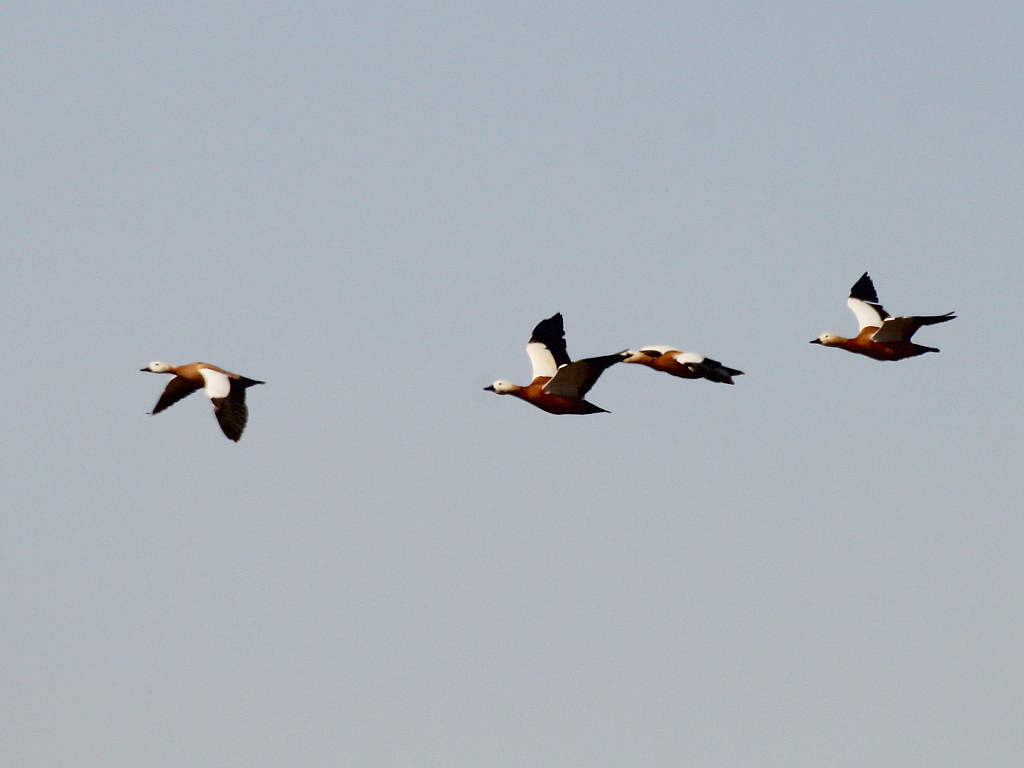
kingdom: Animalia
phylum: Chordata
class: Aves
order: Anseriformes
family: Anatidae
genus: Tadorna
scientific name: Tadorna ferruginea
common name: Ruddy shelduck
